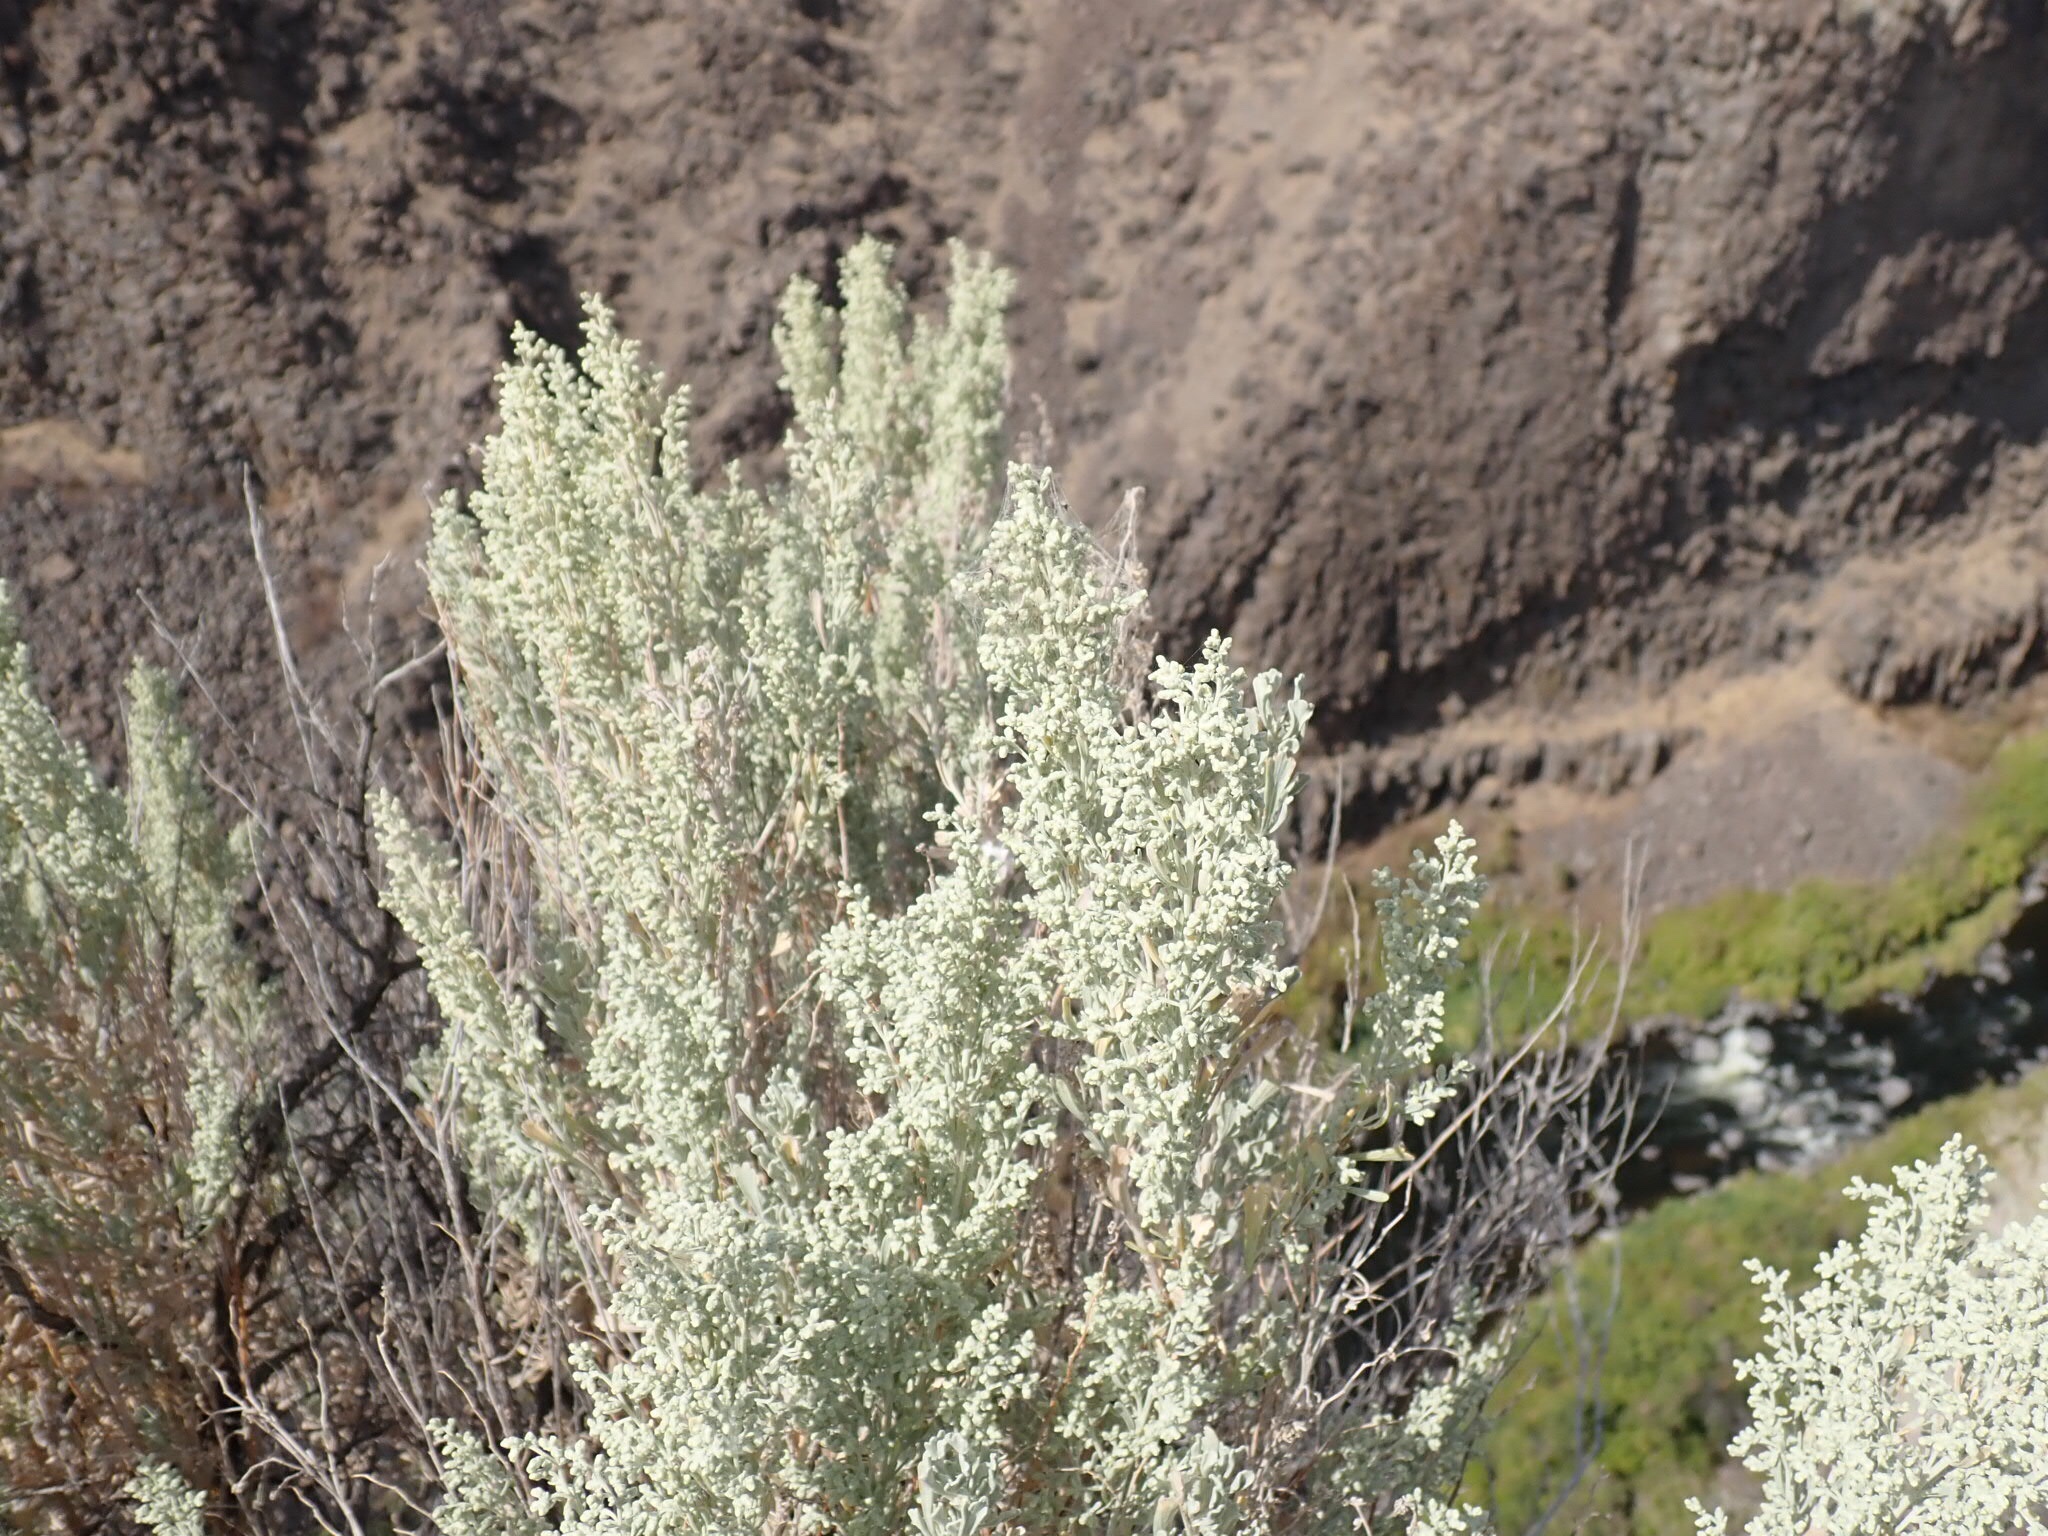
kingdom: Plantae
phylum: Tracheophyta
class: Magnoliopsida
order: Asterales
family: Asteraceae
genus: Artemisia
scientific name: Artemisia tridentata
